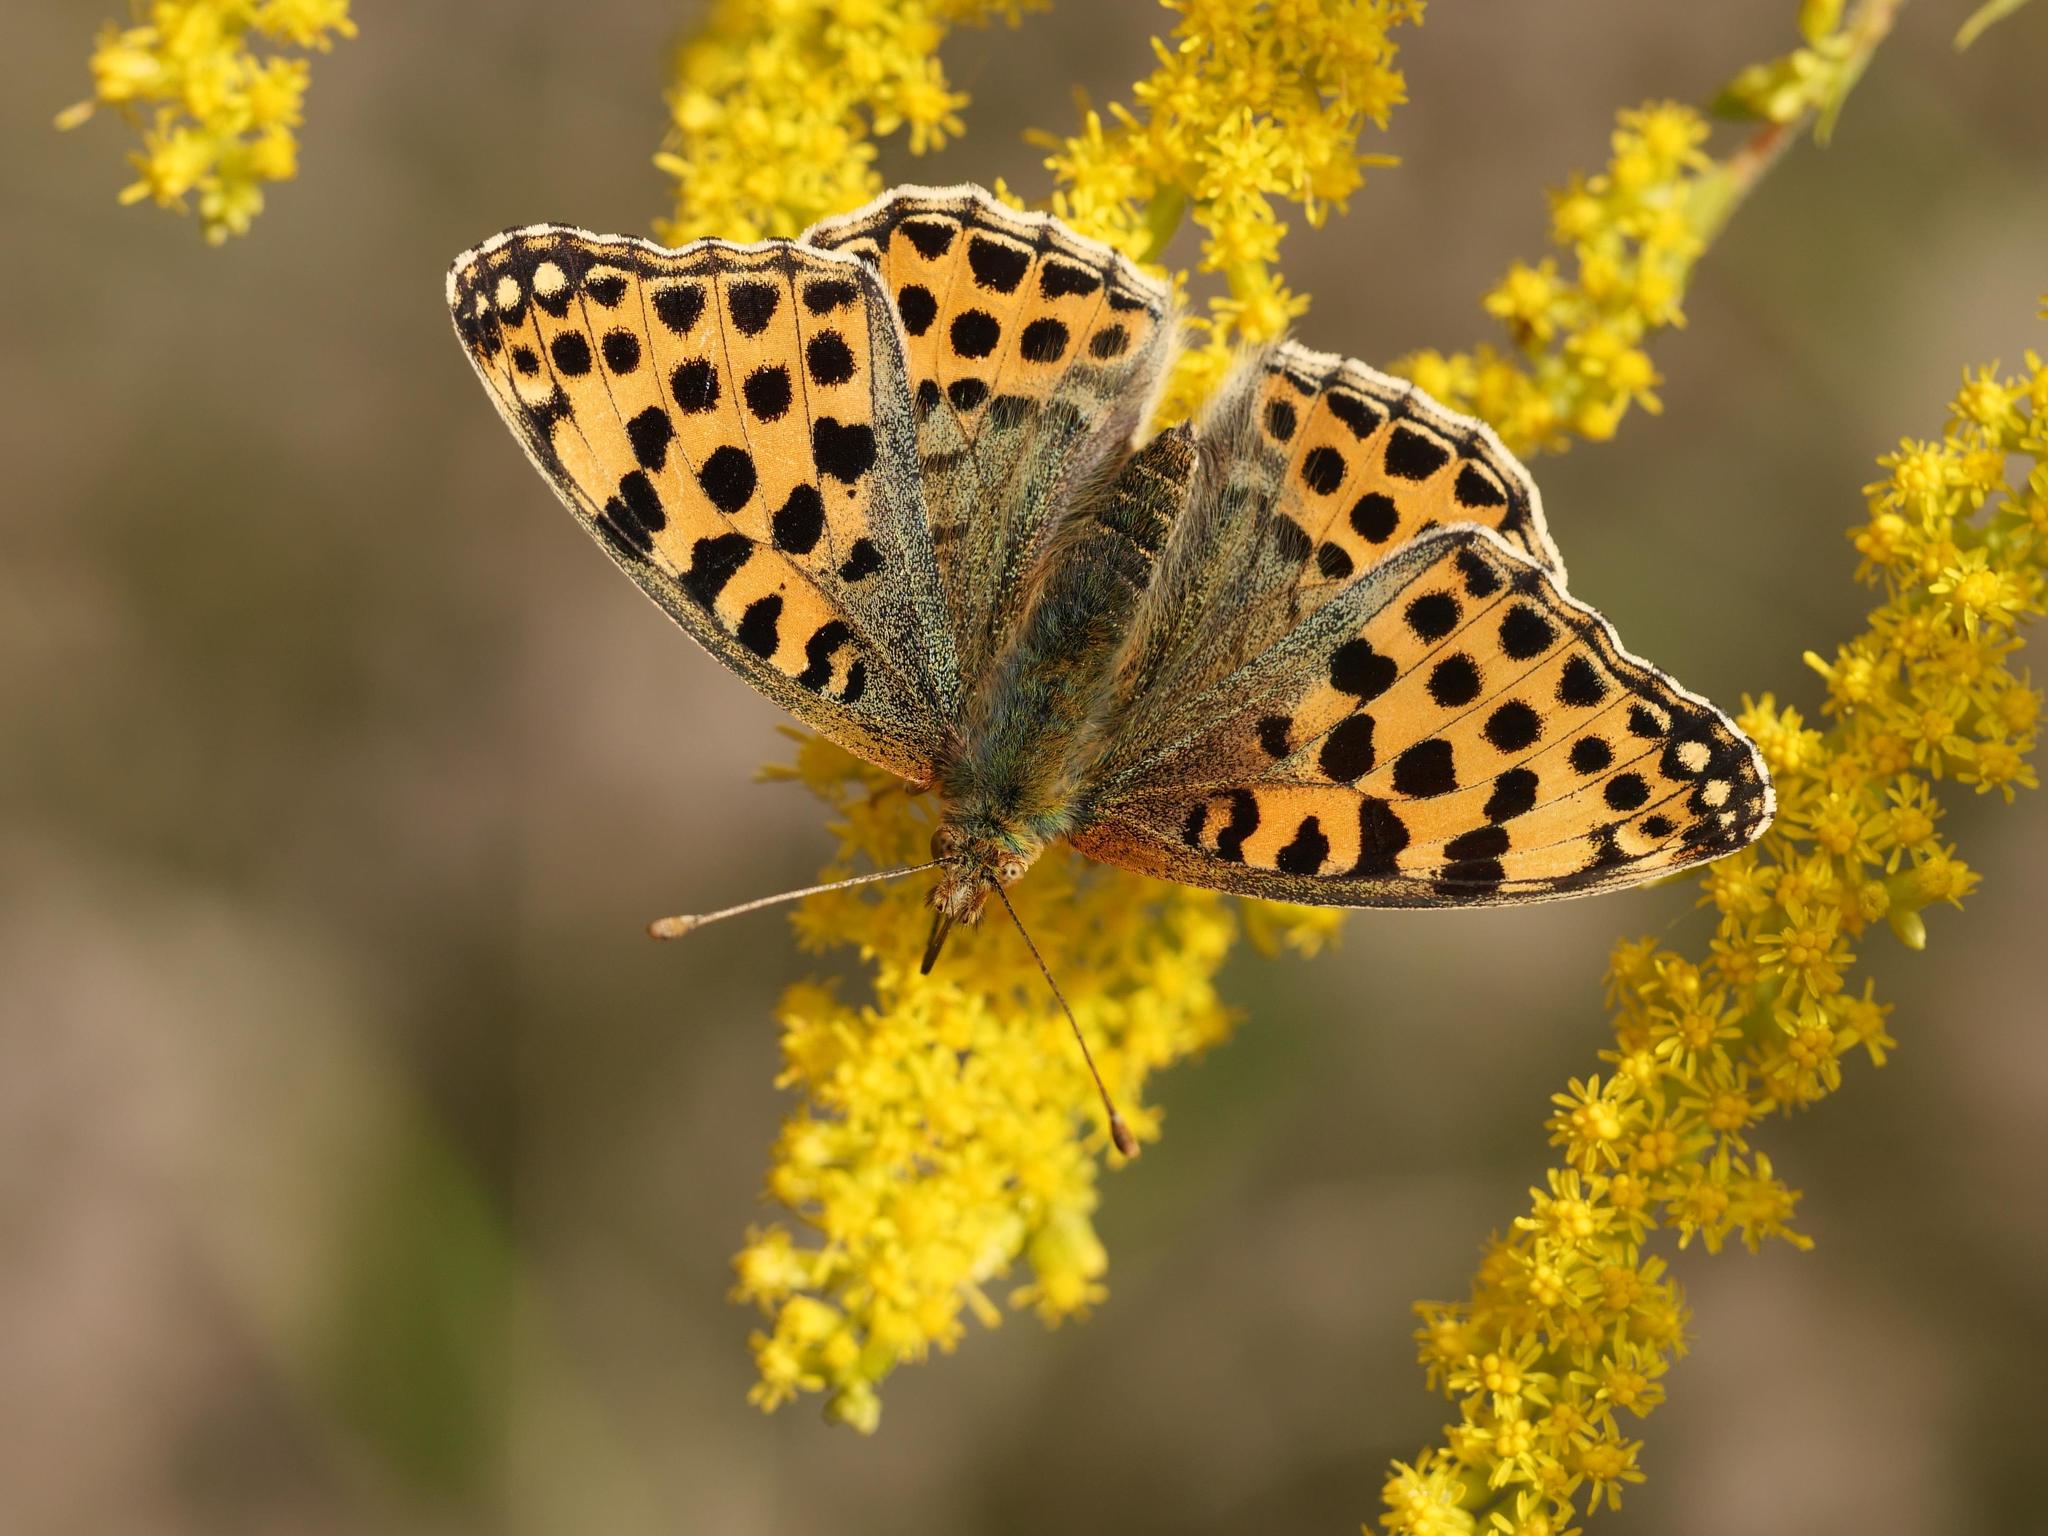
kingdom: Animalia
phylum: Arthropoda
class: Insecta
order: Lepidoptera
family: Nymphalidae
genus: Issoria
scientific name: Issoria lathonia
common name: Queen of spain fritillary
